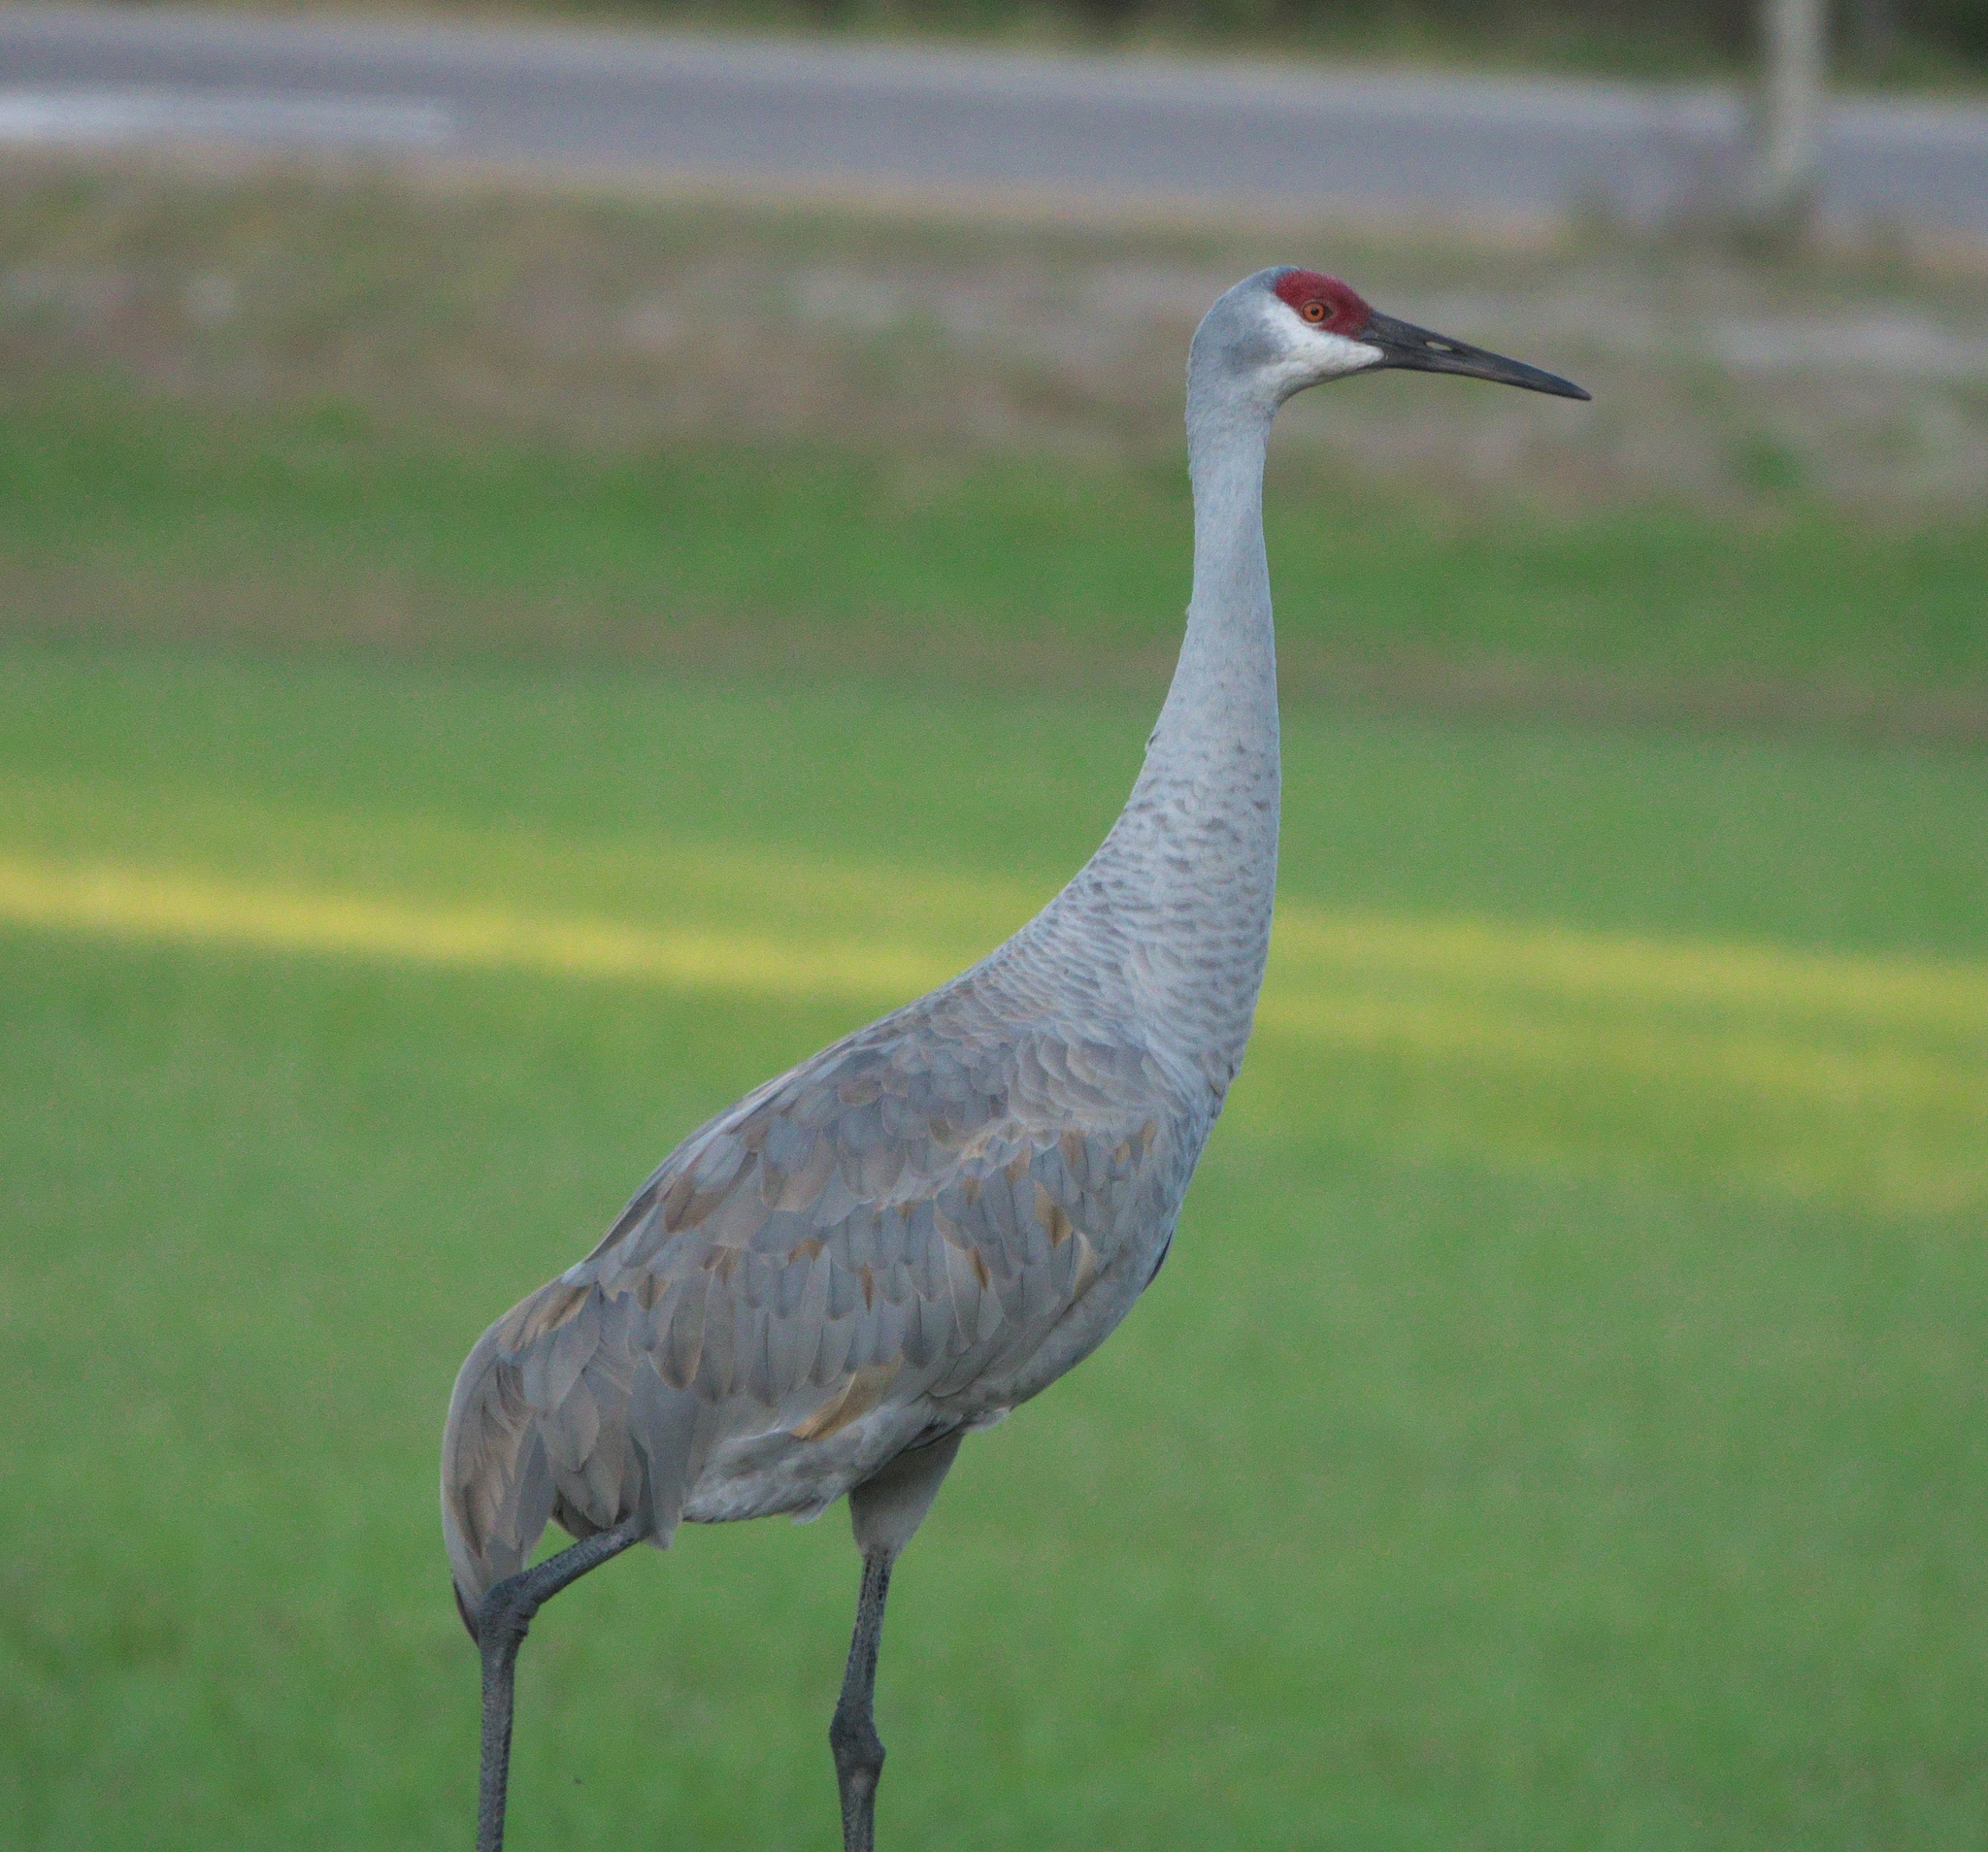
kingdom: Animalia
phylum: Chordata
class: Aves
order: Gruiformes
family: Gruidae
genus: Grus
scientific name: Grus canadensis
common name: Sandhill crane
